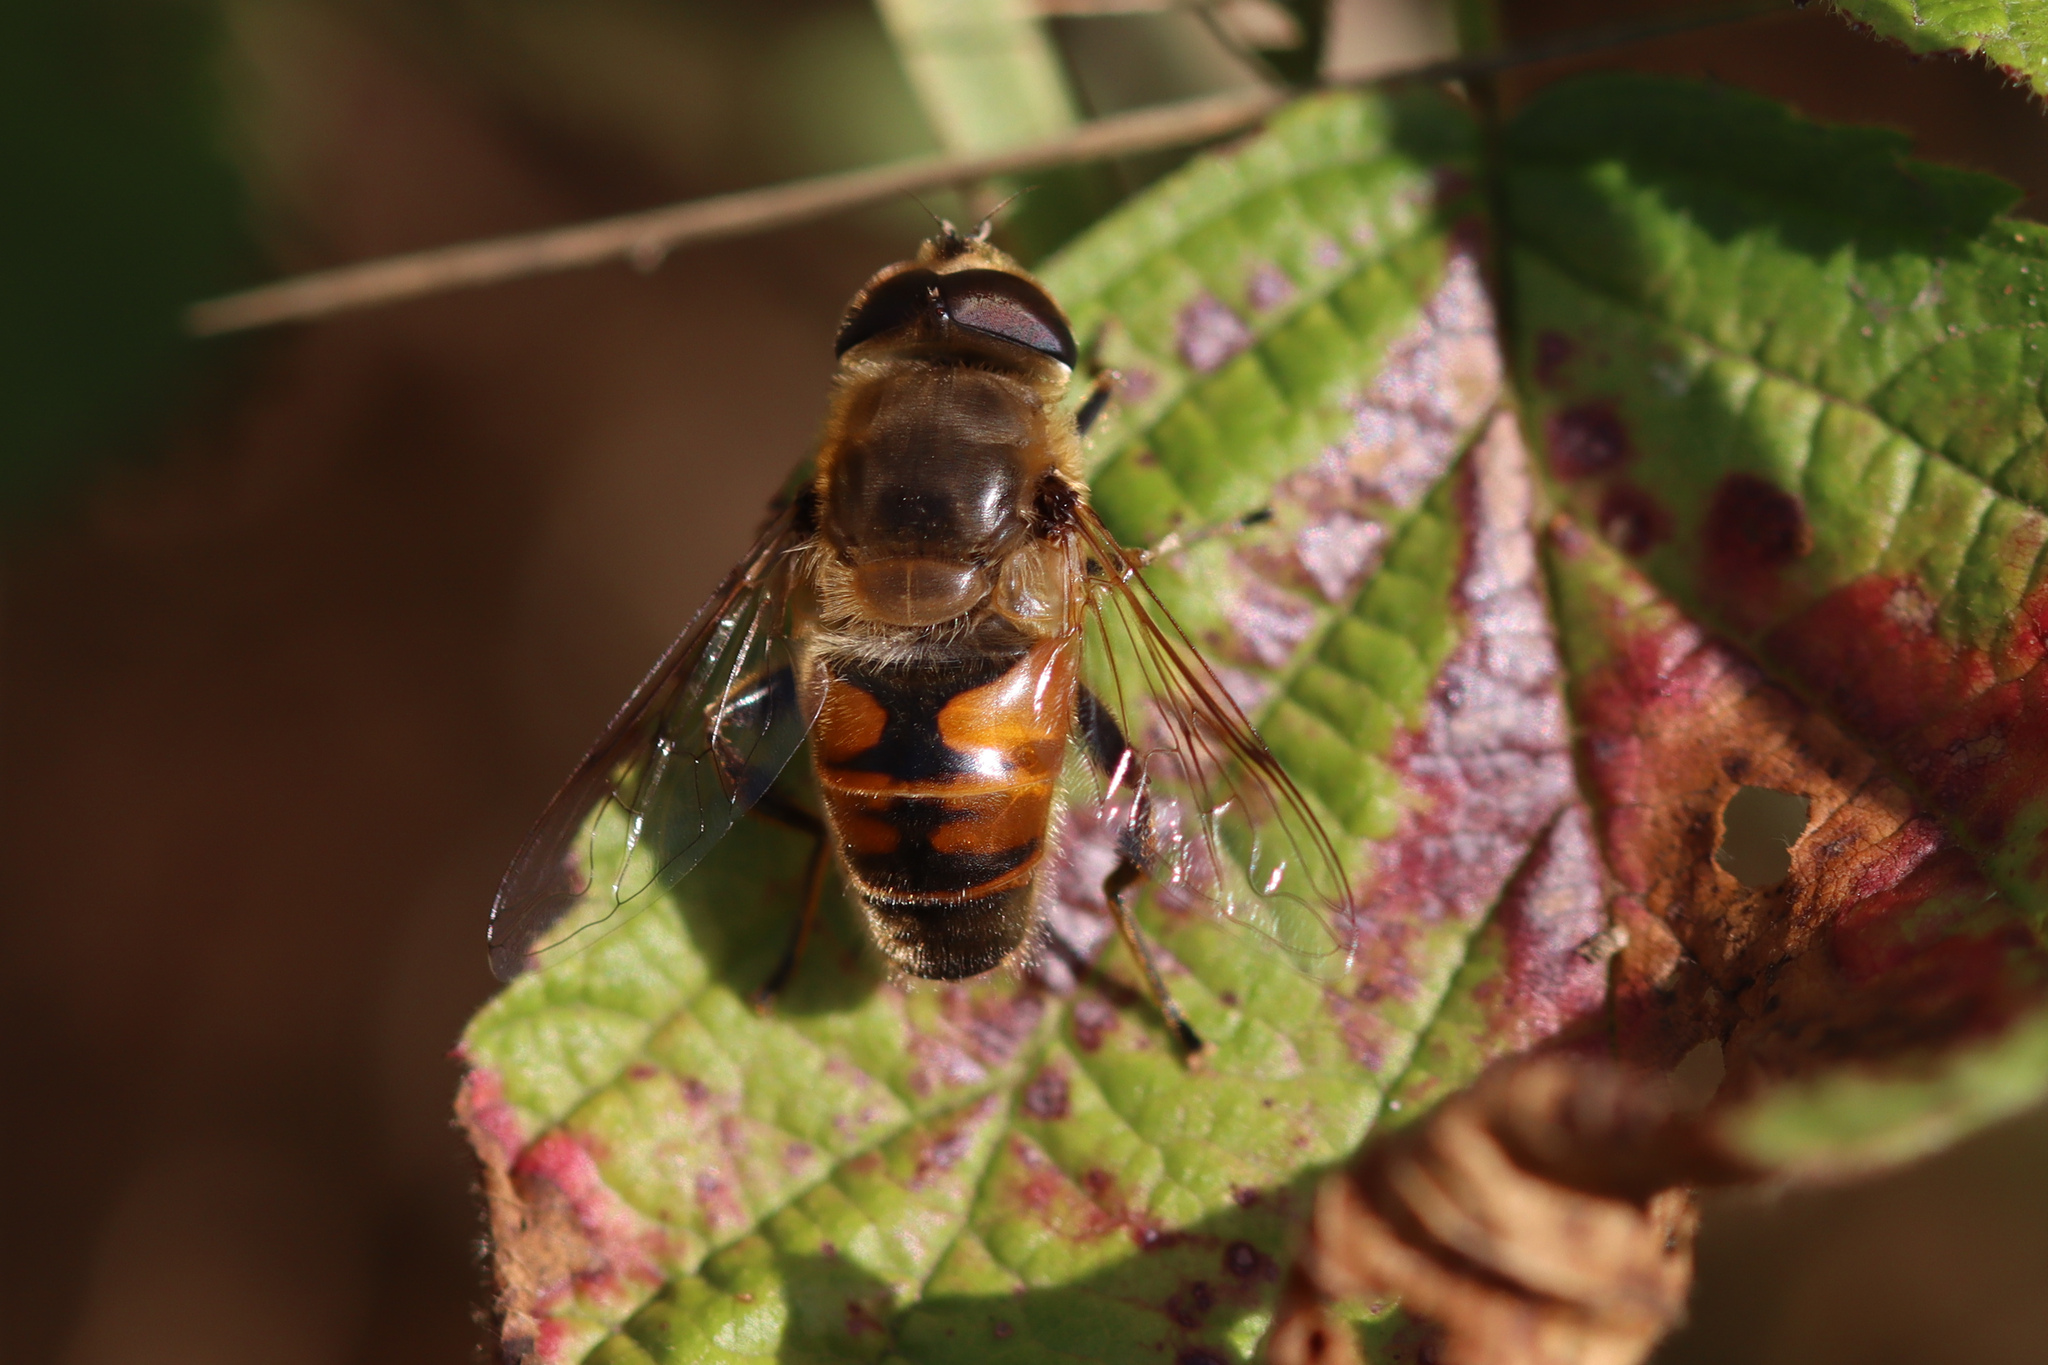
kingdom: Animalia
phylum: Arthropoda
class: Insecta
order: Diptera
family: Syrphidae
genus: Eristalis
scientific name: Eristalis tenax
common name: Drone fly
